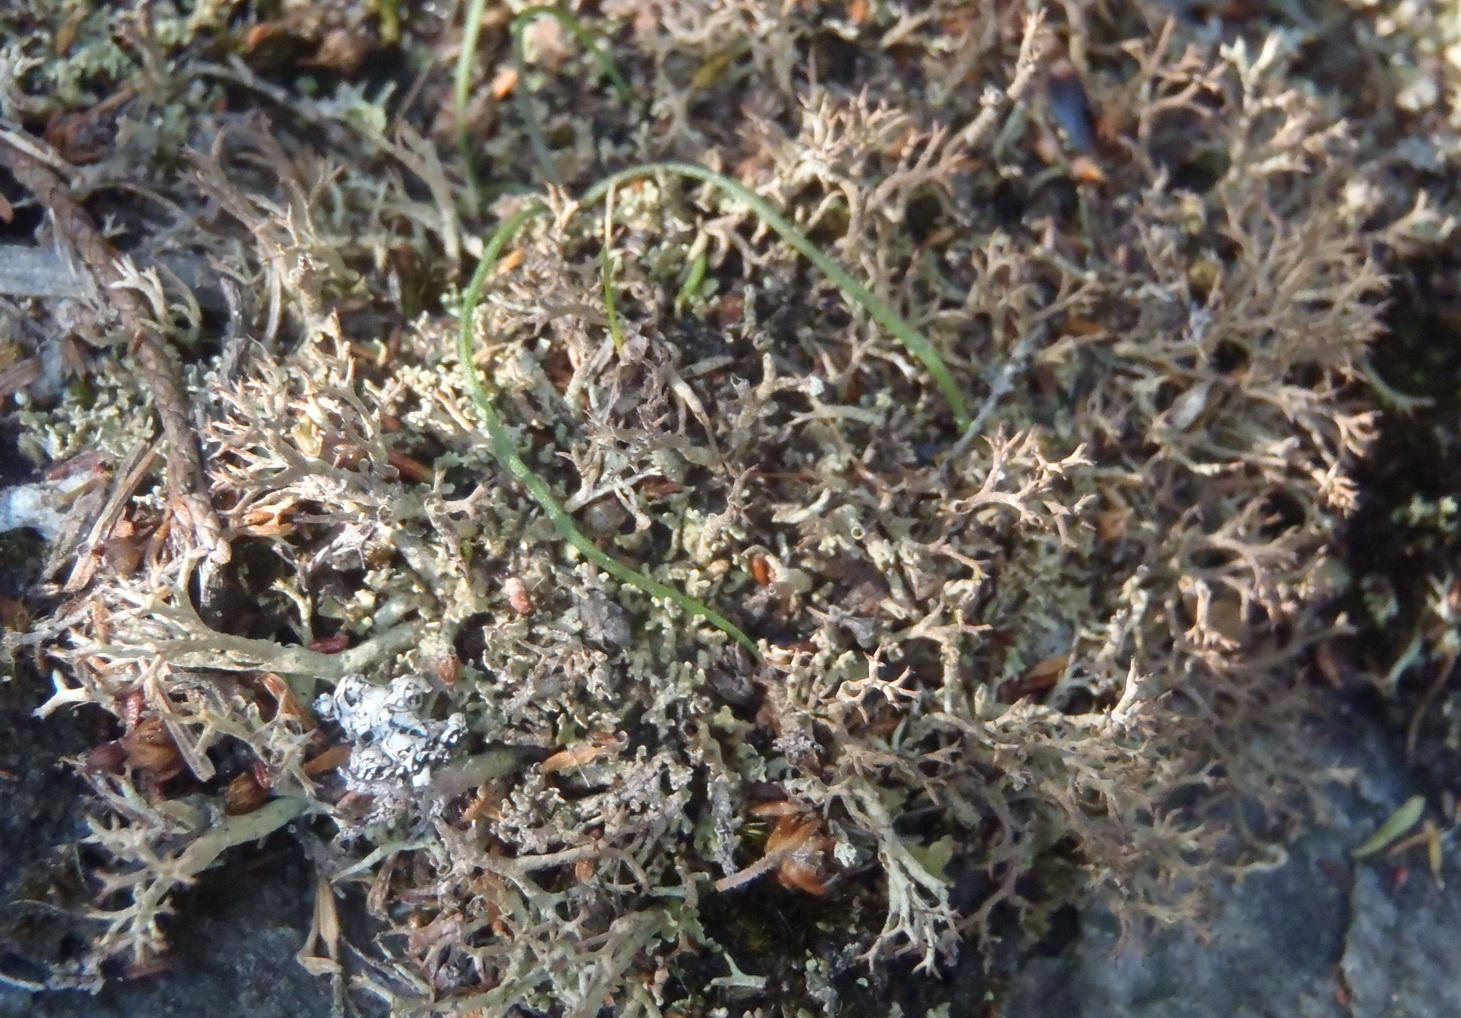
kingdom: Fungi
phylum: Ascomycota
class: Lecanoromycetes
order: Lecanorales
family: Cladoniaceae
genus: Cladonia
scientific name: Cladonia
